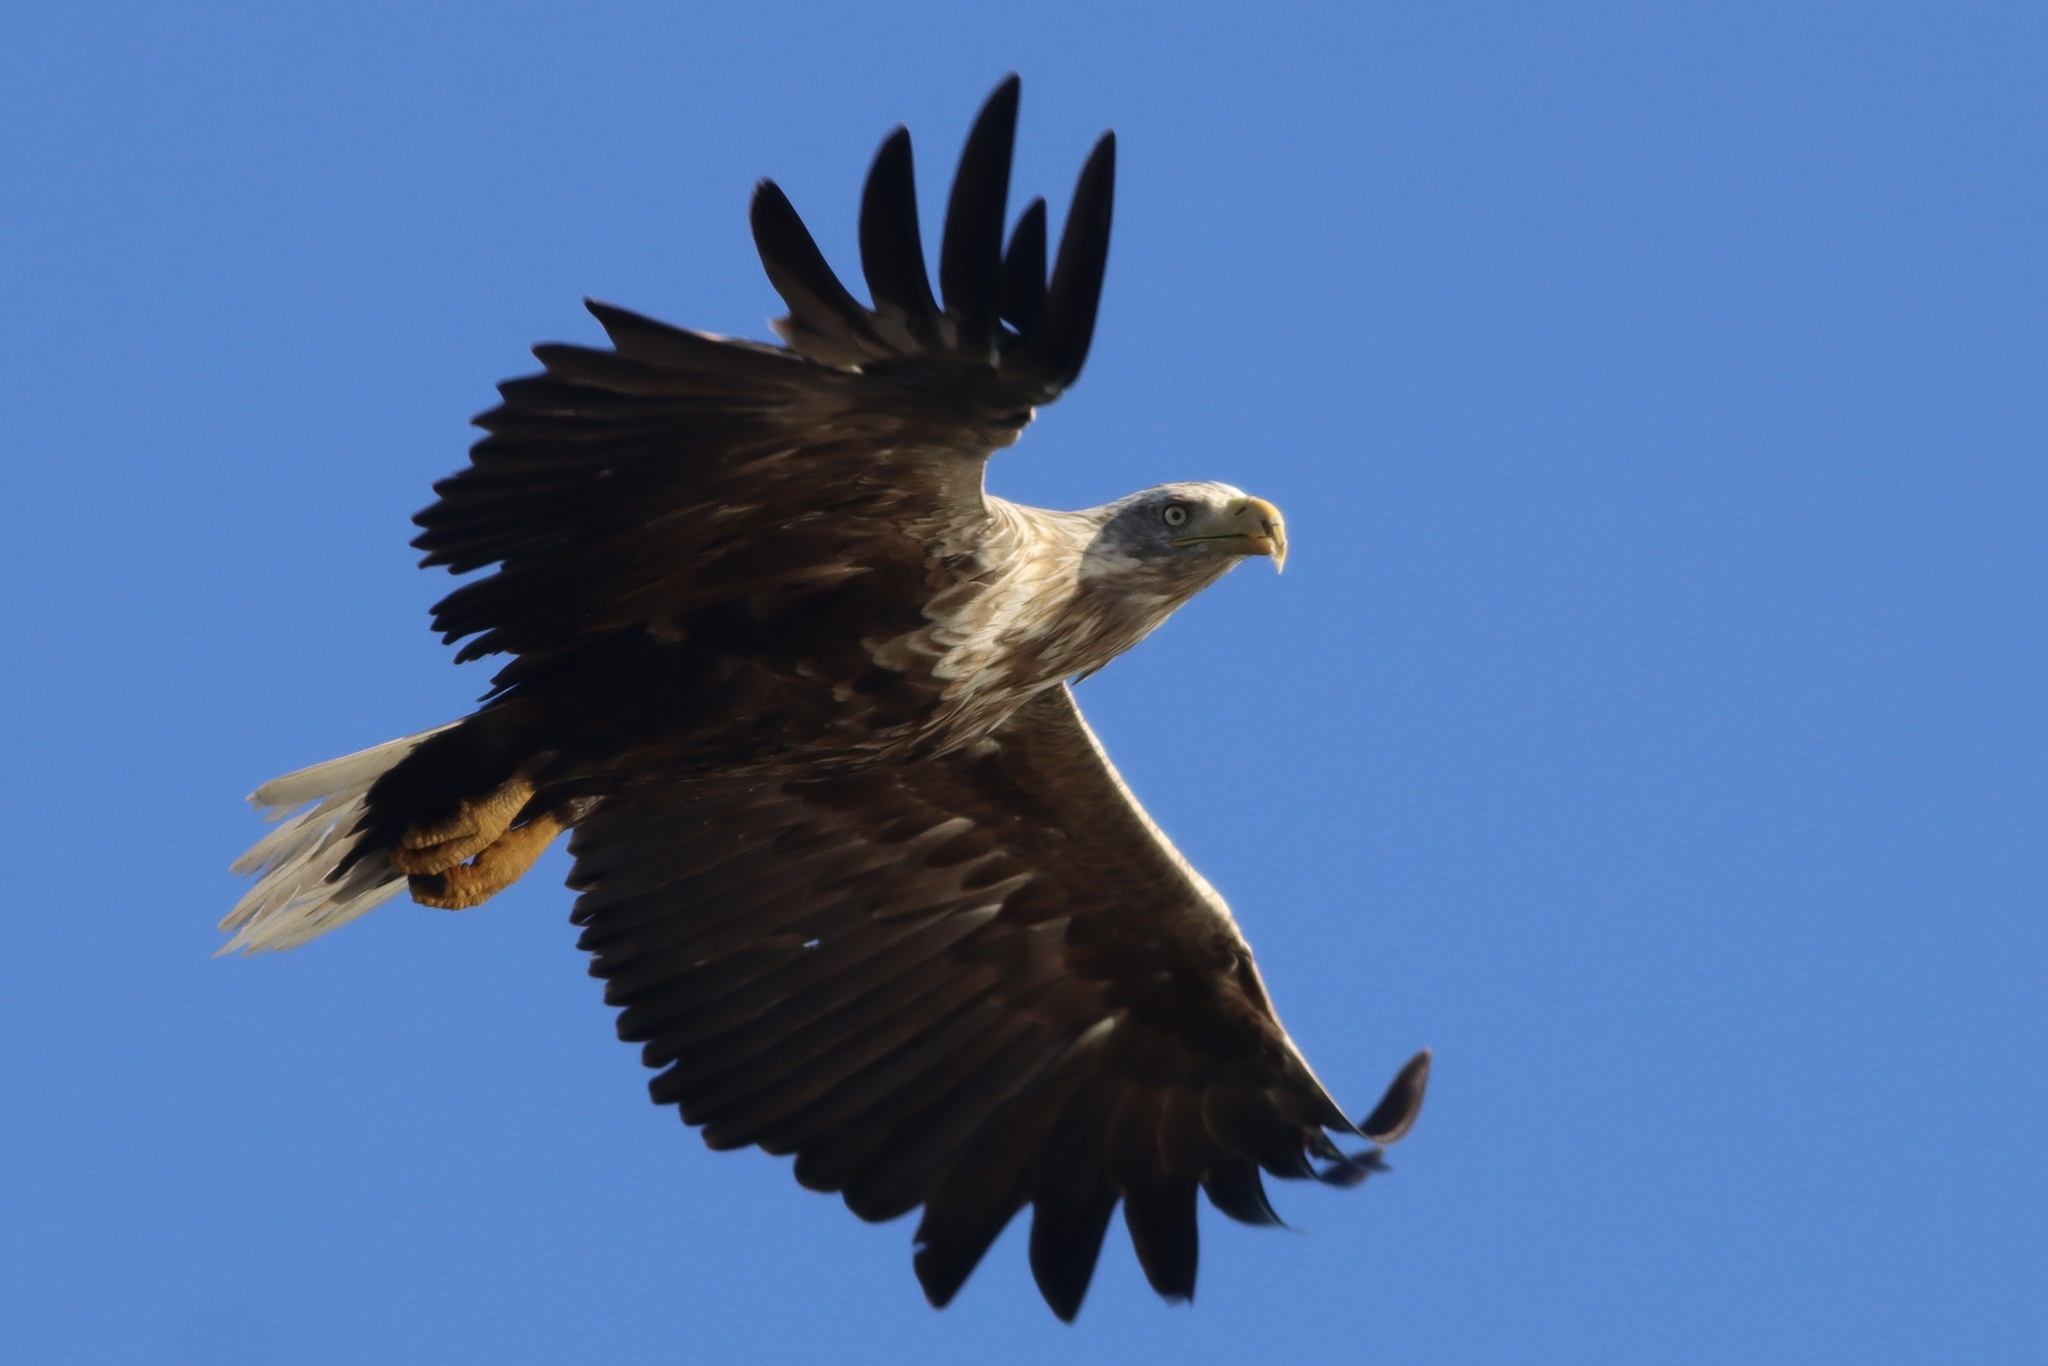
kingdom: Animalia
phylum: Chordata
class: Aves
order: Accipitriformes
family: Accipitridae
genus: Haliaeetus
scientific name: Haliaeetus albicilla
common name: White-tailed eagle
